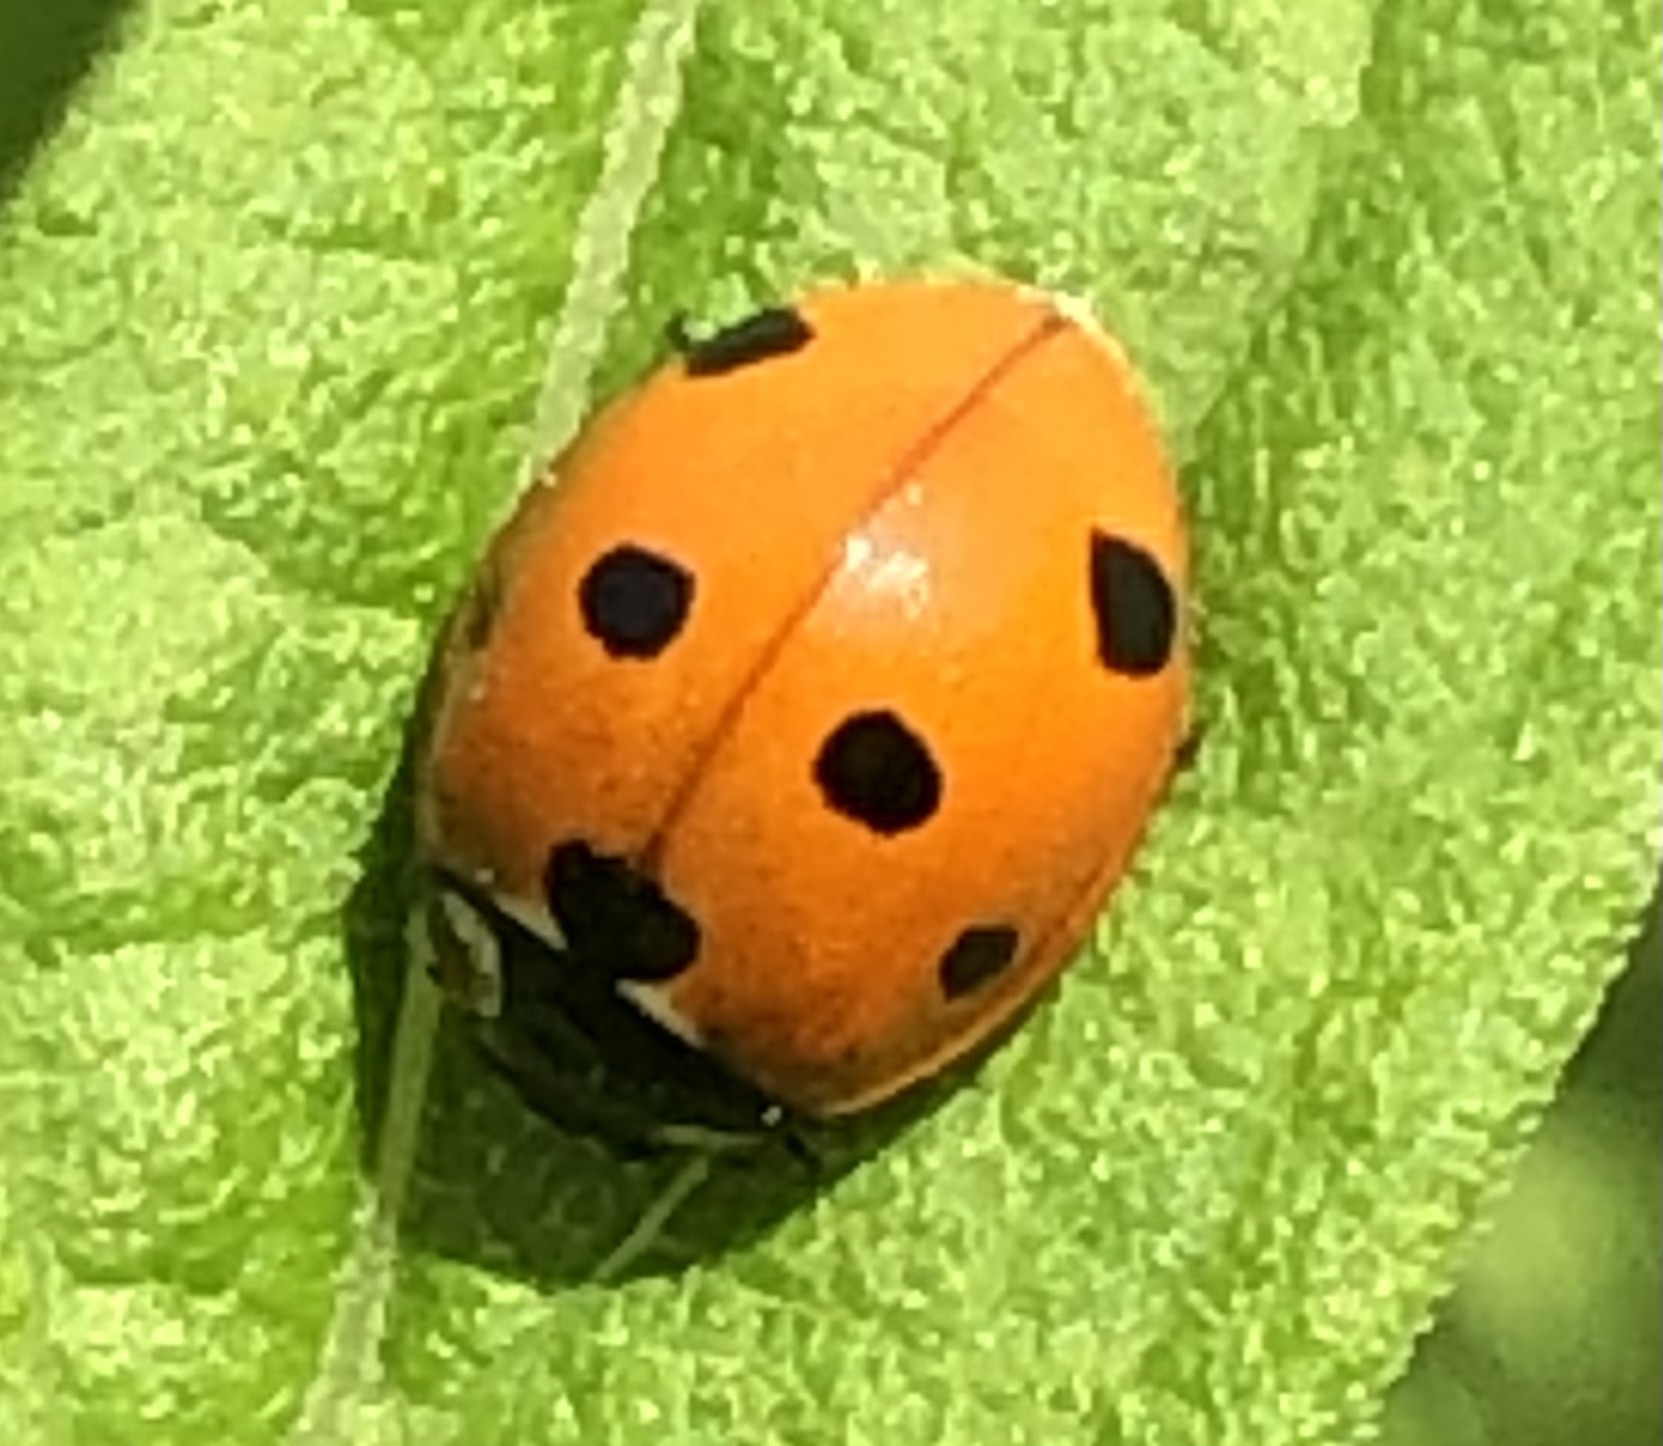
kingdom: Animalia
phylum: Arthropoda
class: Insecta
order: Coleoptera
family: Coccinellidae
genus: Coccinella
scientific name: Coccinella septempunctata
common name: Sevenspotted lady beetle
